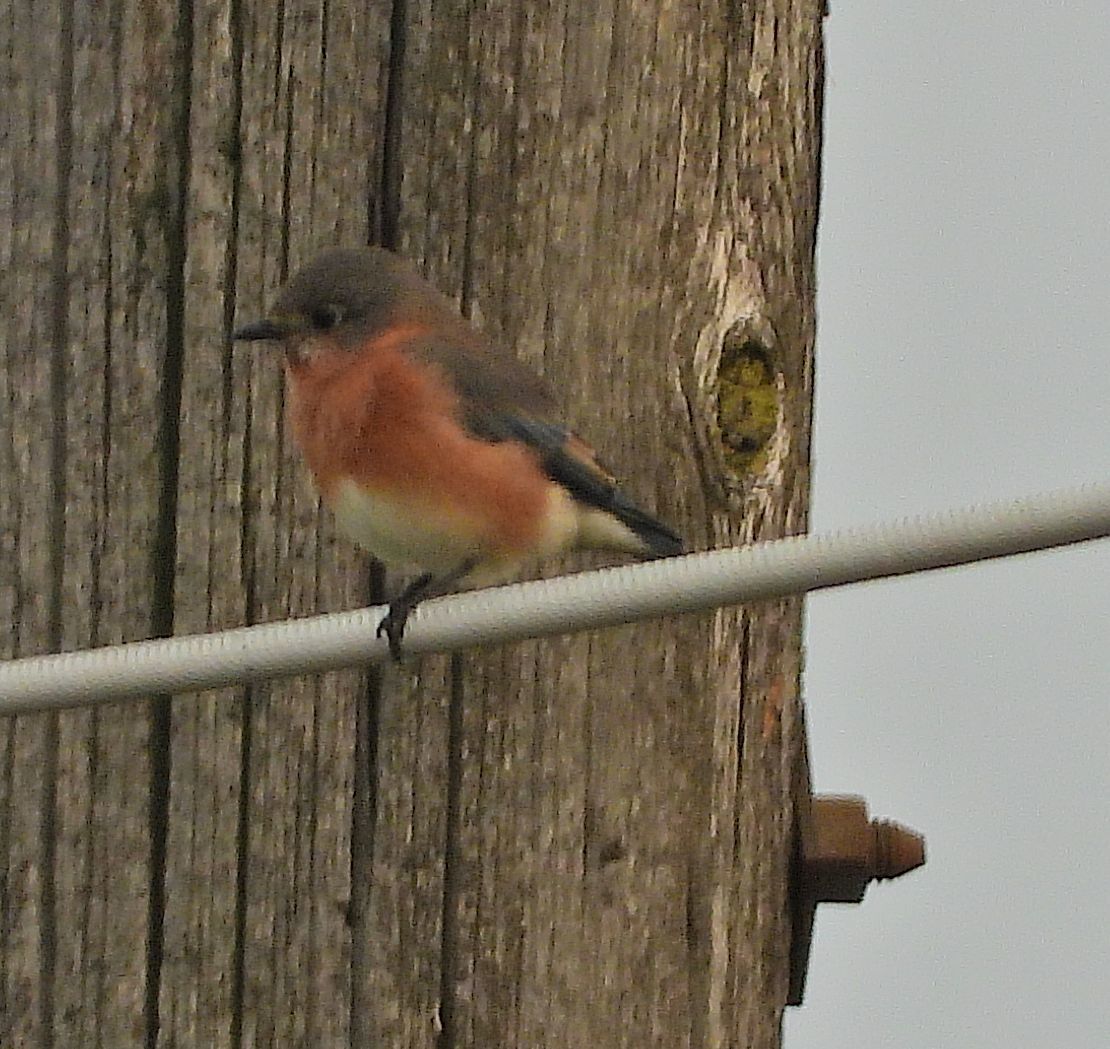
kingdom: Animalia
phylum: Chordata
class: Aves
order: Passeriformes
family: Turdidae
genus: Sialia
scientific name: Sialia sialis
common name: Eastern bluebird
